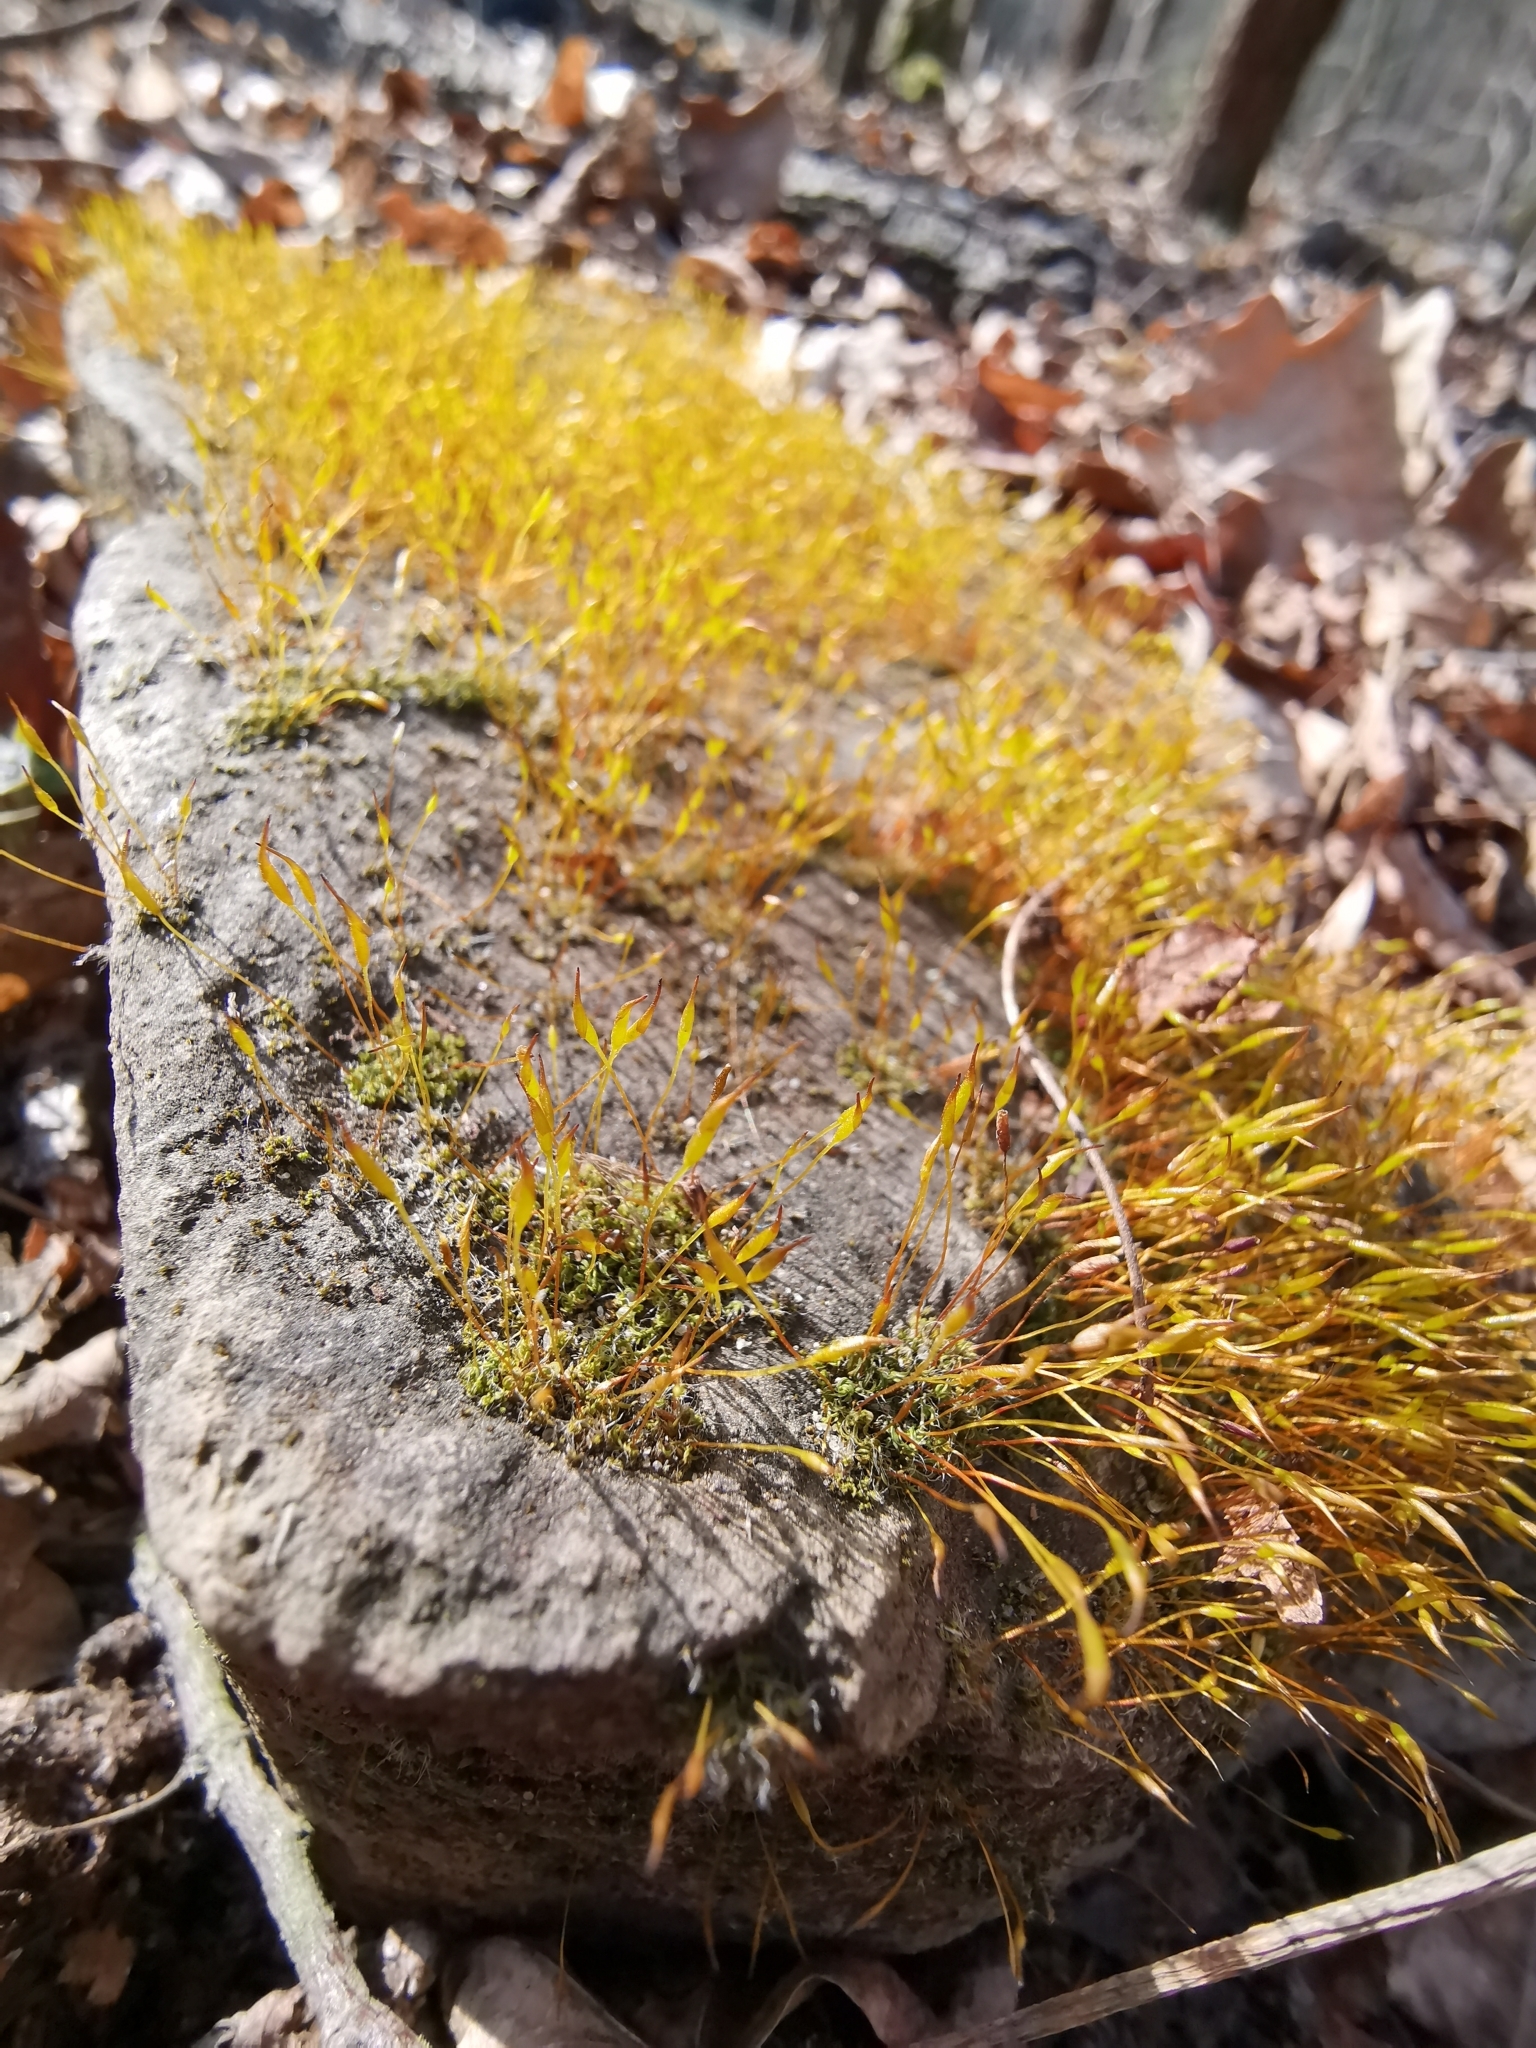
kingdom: Plantae
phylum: Bryophyta
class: Bryopsida
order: Pottiales
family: Pottiaceae
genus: Tortula
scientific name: Tortula muralis
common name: Wall screw-moss
